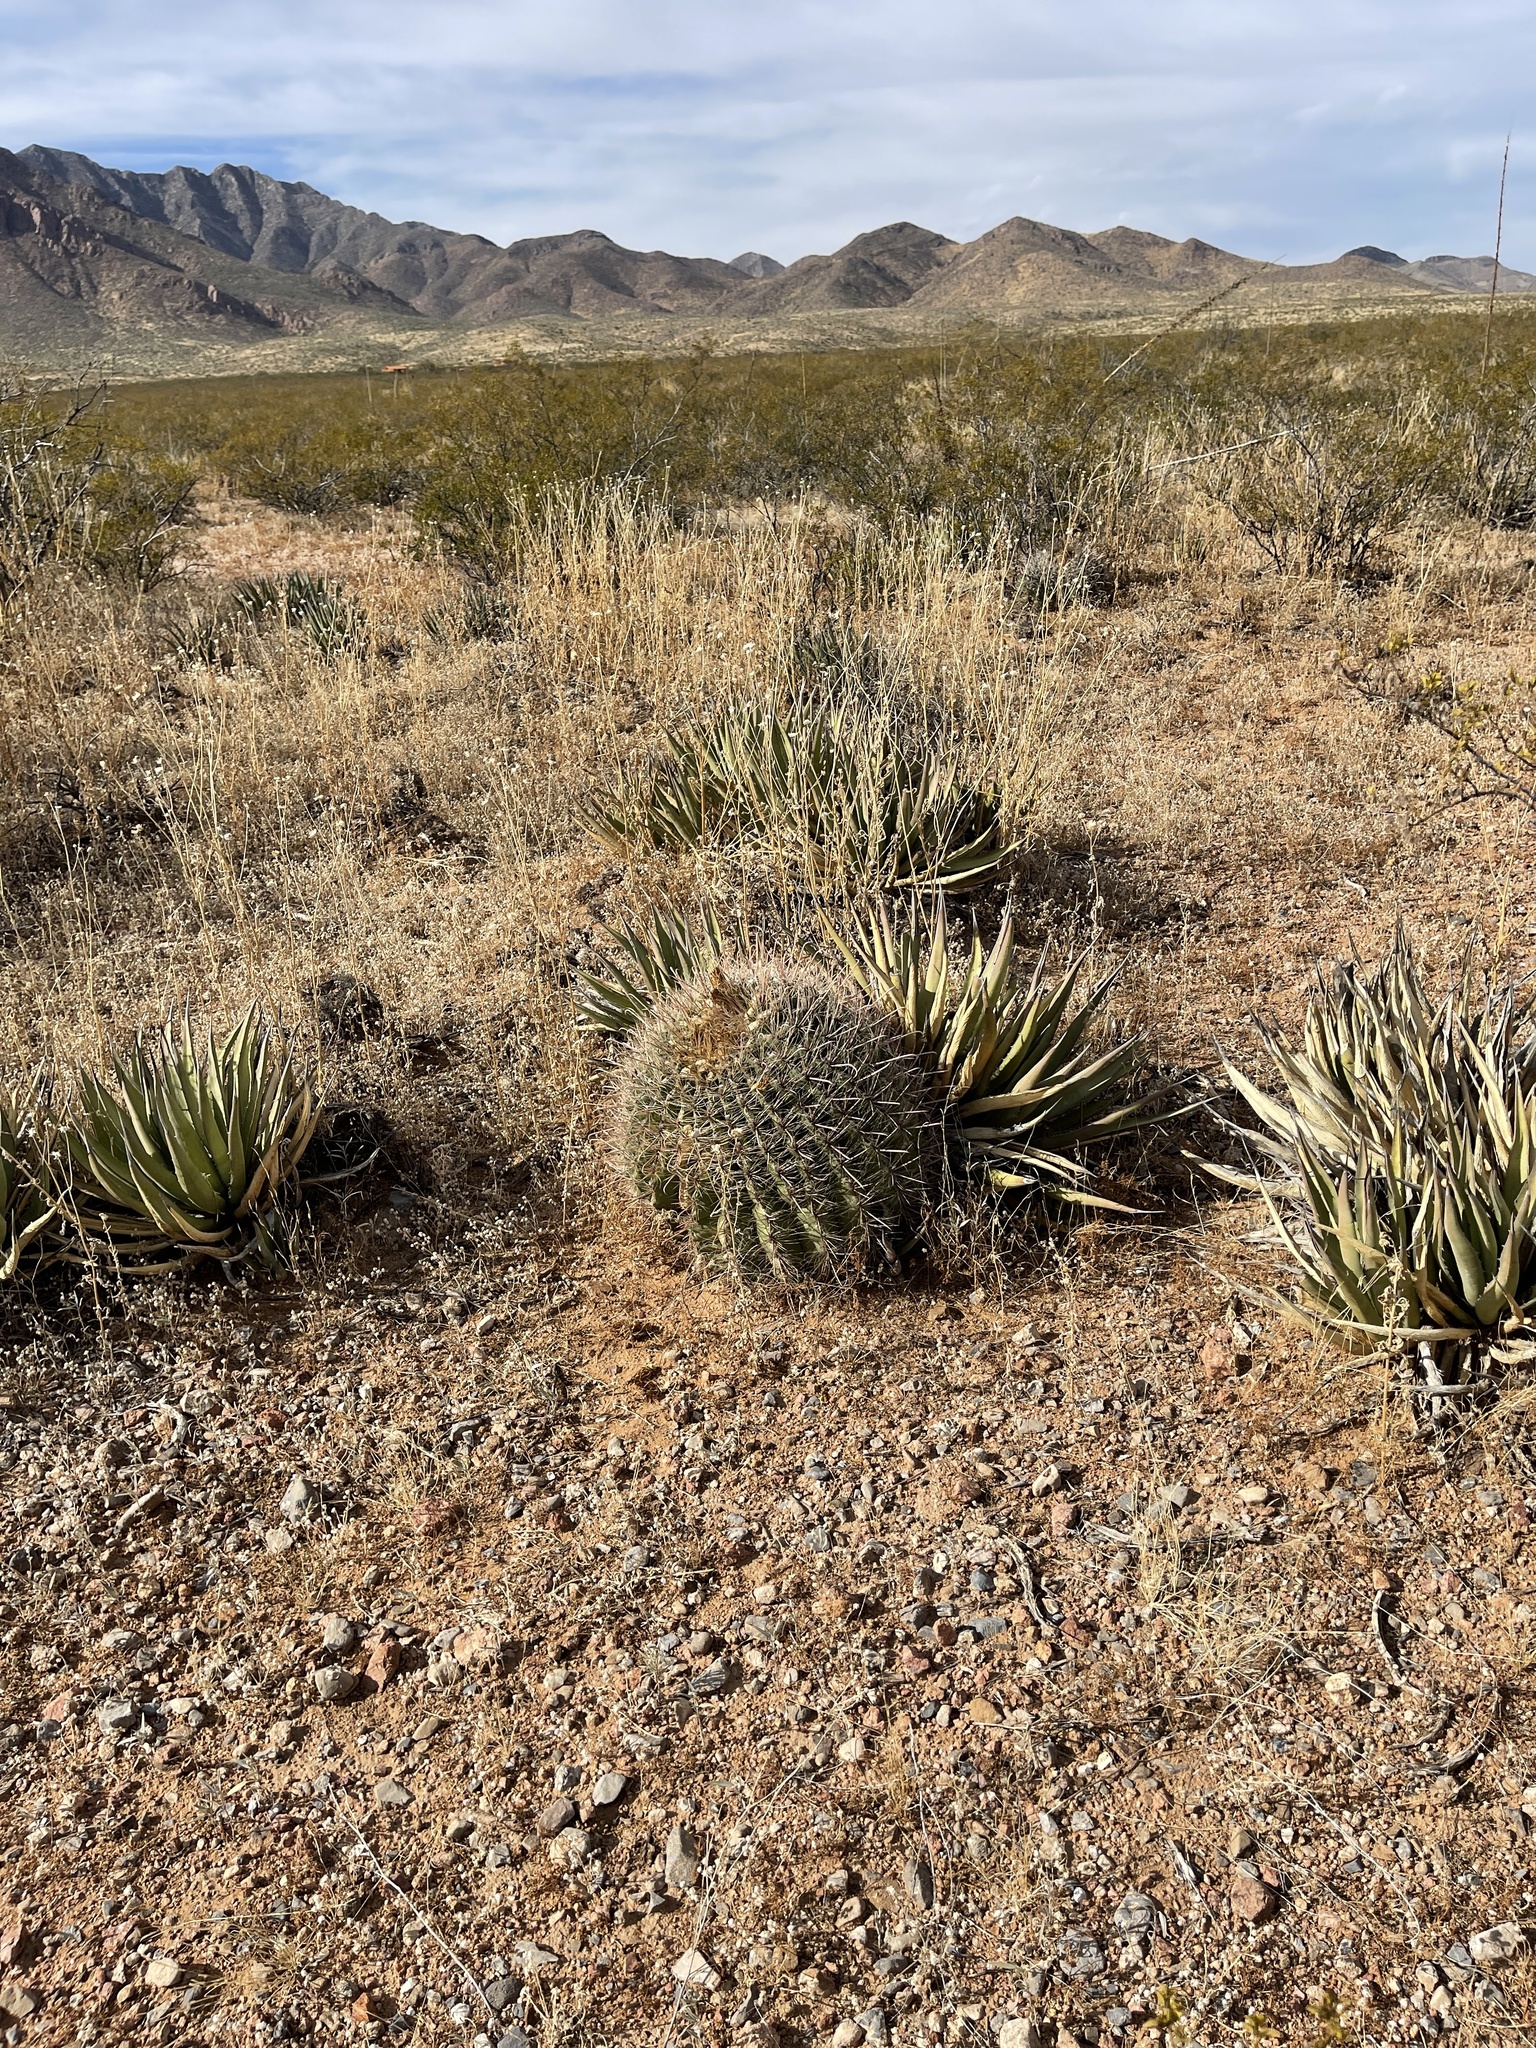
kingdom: Plantae
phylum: Tracheophyta
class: Magnoliopsida
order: Caryophyllales
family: Cactaceae
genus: Ferocactus
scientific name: Ferocactus wislizeni
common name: Candy barrel cactus
